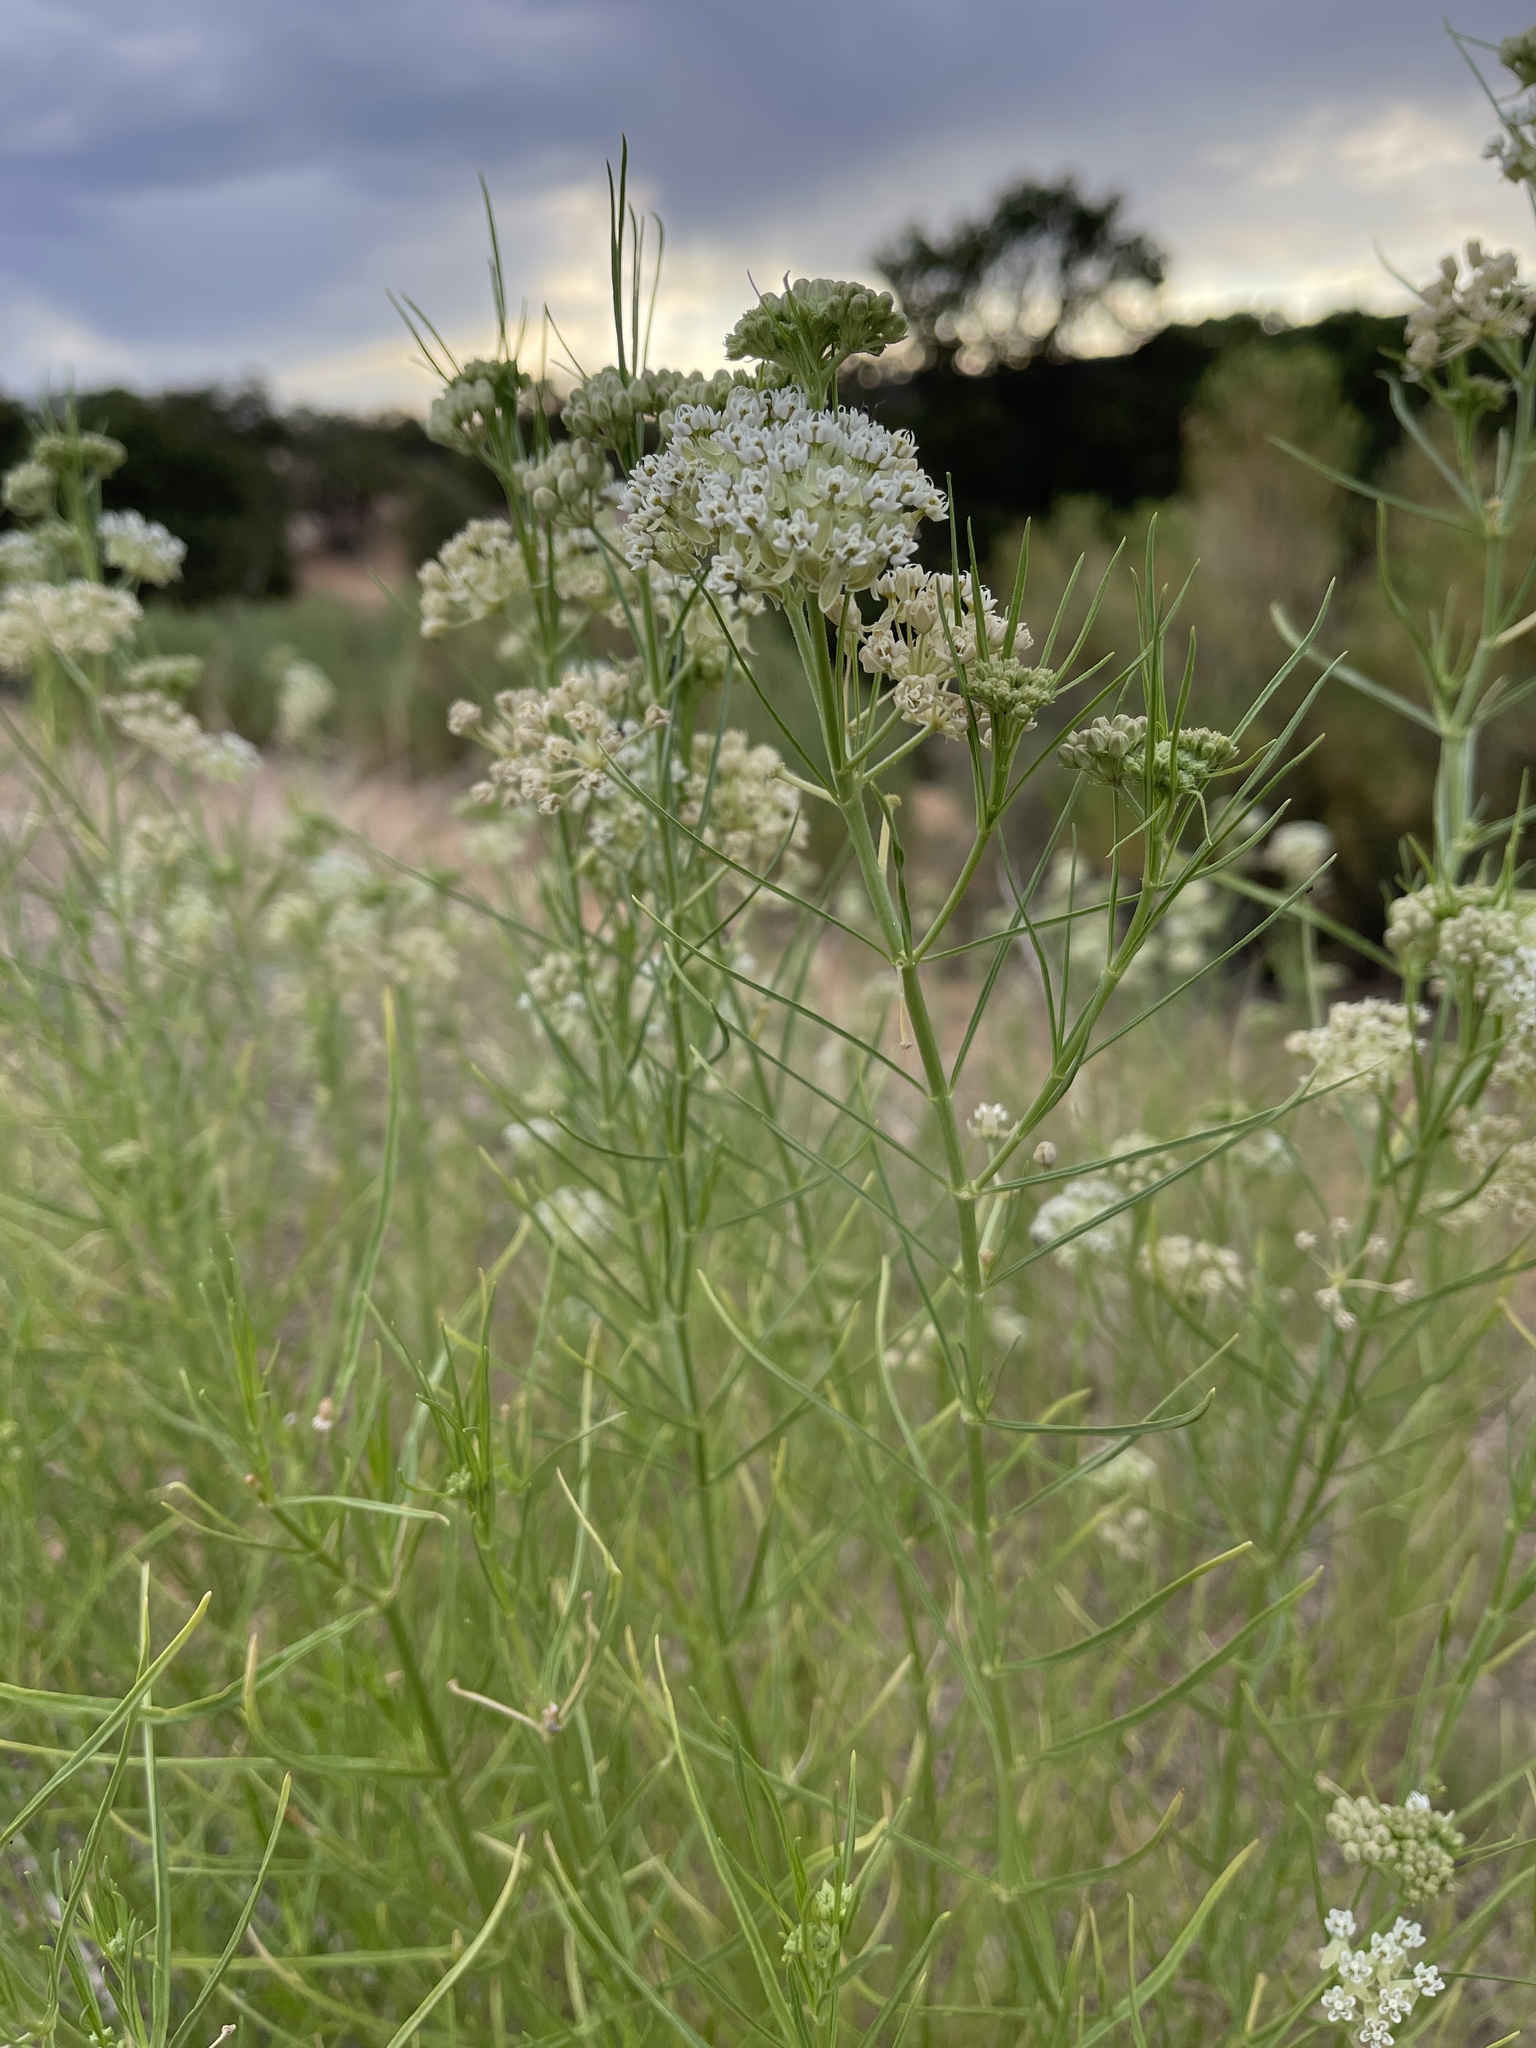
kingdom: Plantae
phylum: Tracheophyta
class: Magnoliopsida
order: Gentianales
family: Apocynaceae
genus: Asclepias
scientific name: Asclepias subverticillata
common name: Horsetail milkweed
